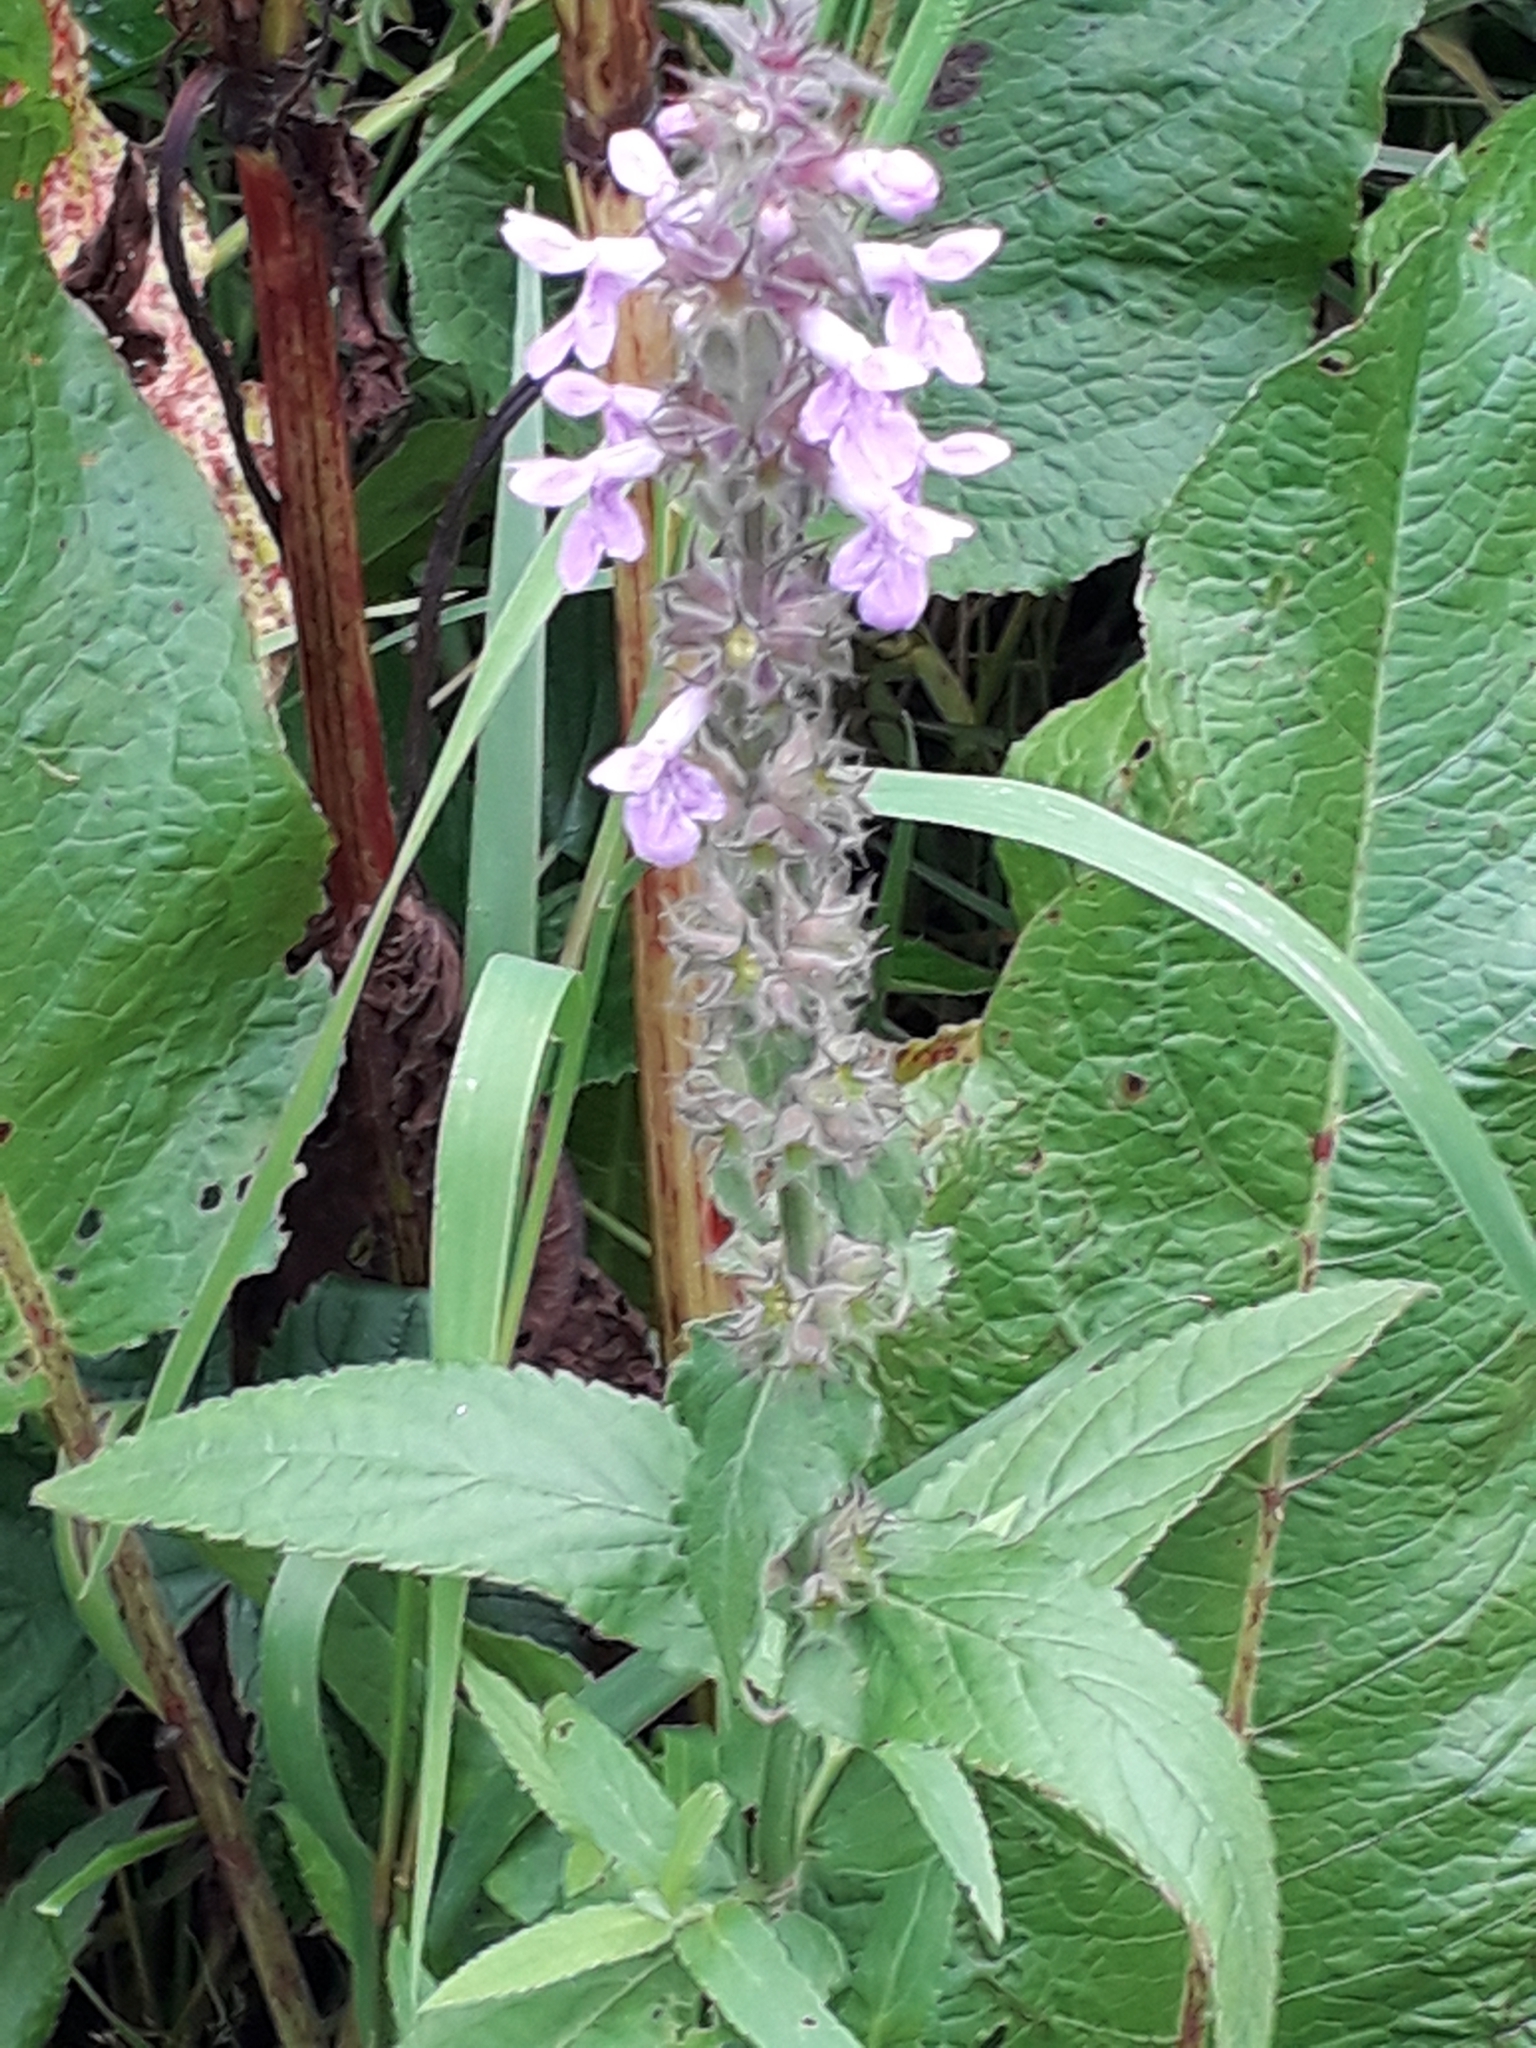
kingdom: Plantae
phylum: Tracheophyta
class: Magnoliopsida
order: Lamiales
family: Lamiaceae
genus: Stachys
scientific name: Stachys palustris
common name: Marsh woundwort
